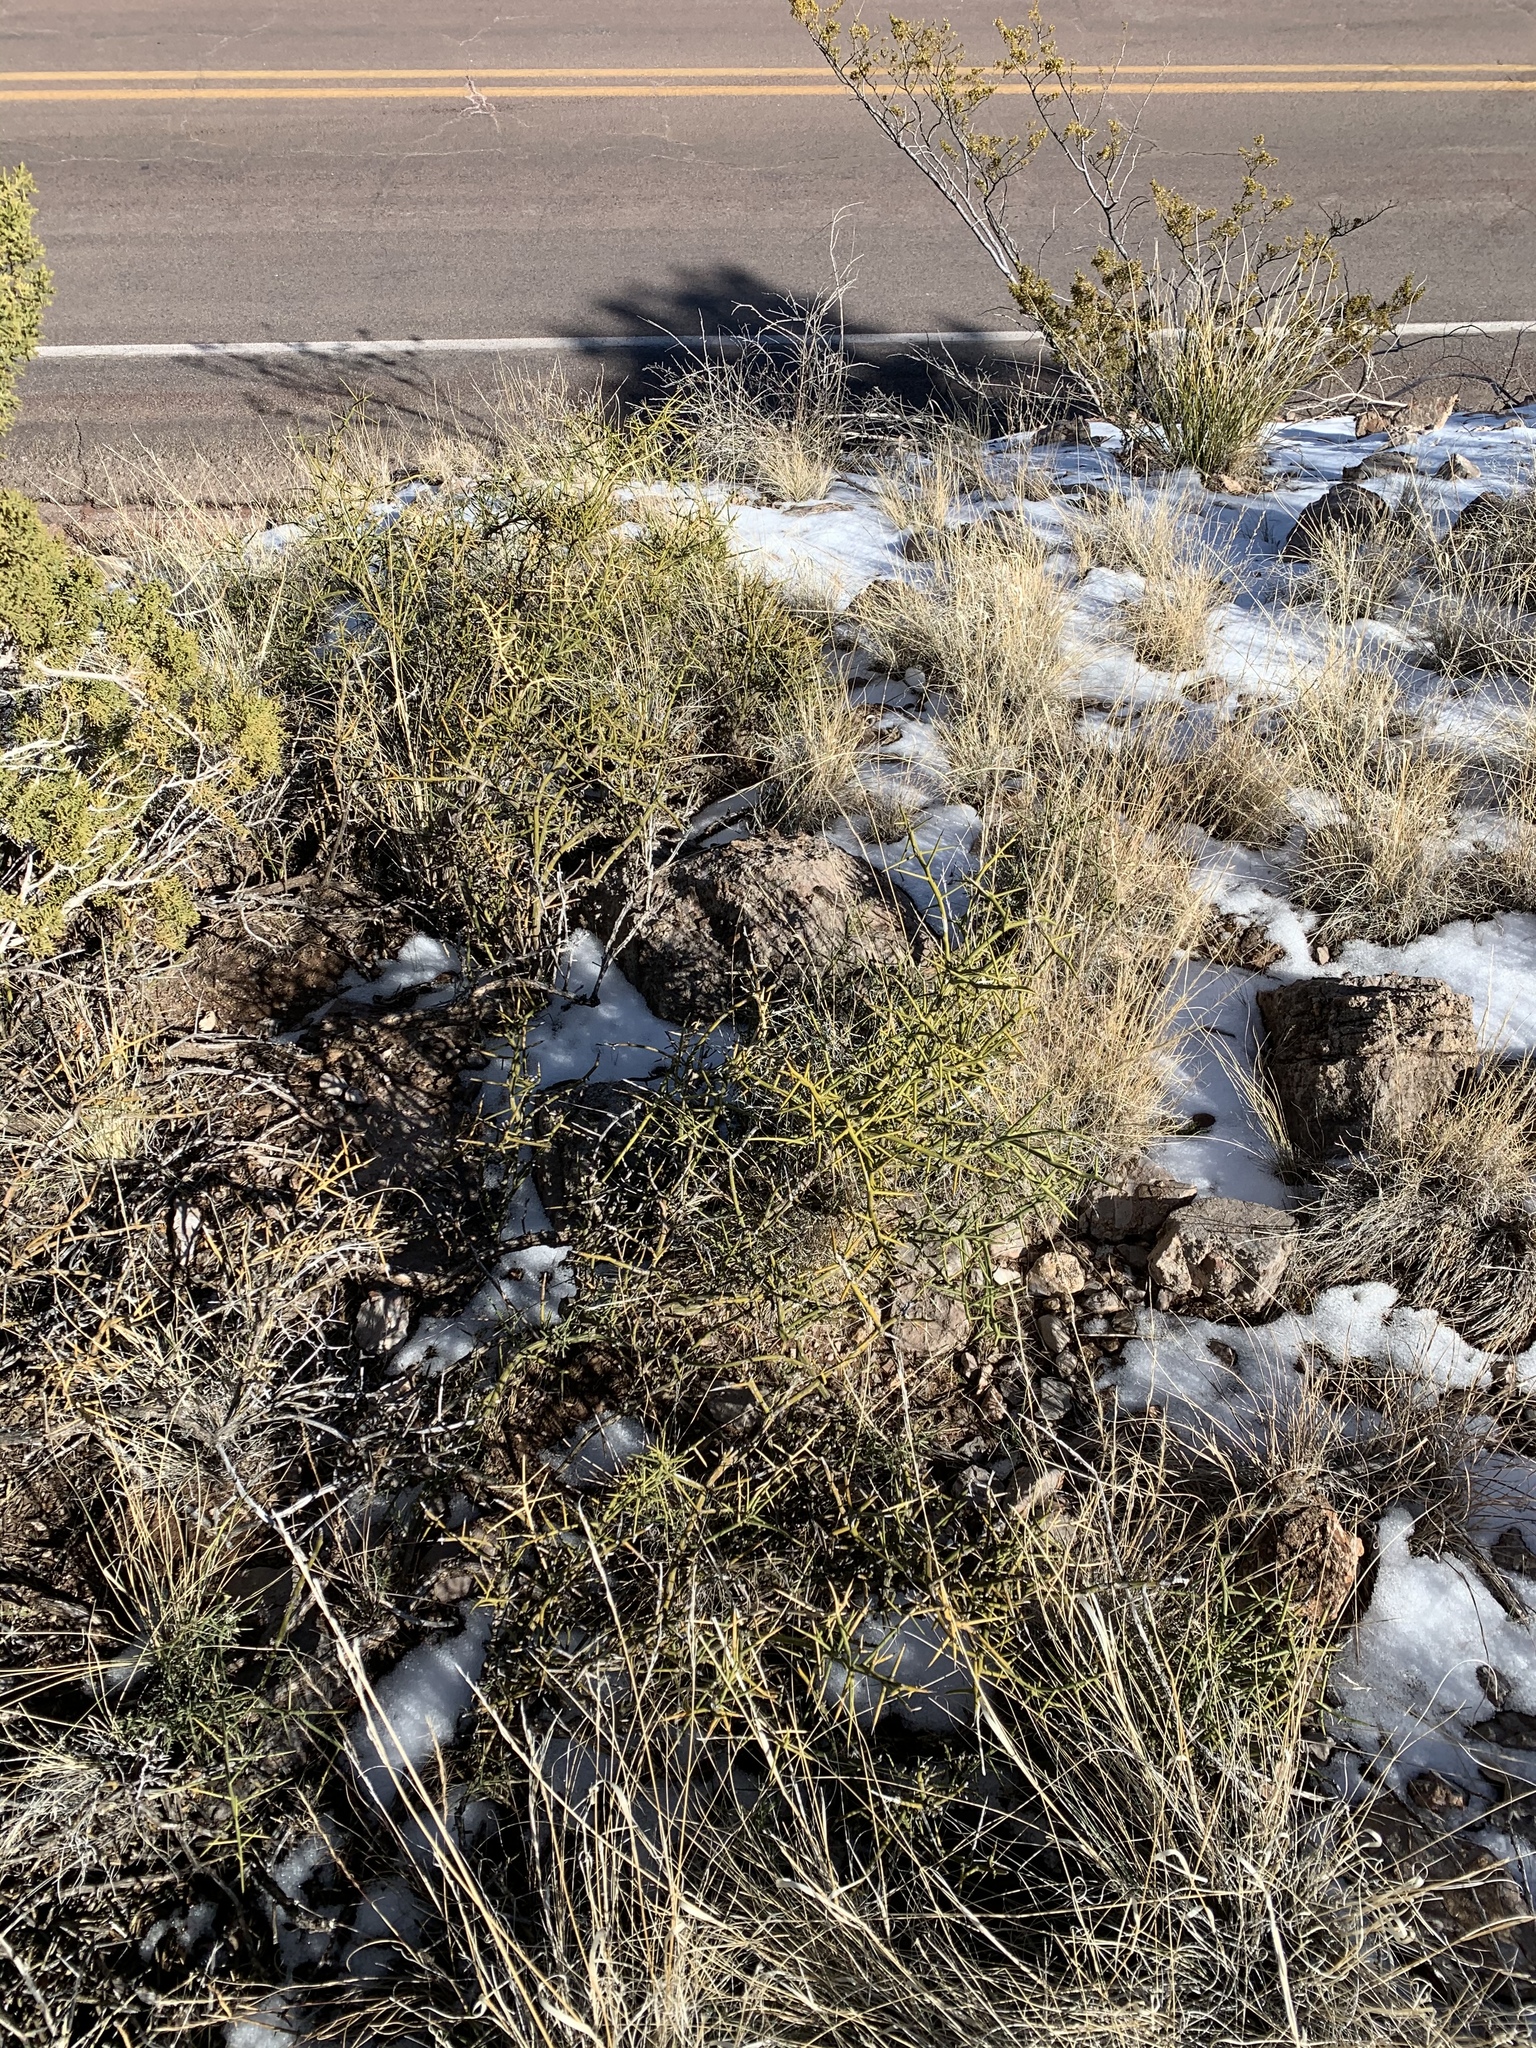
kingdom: Plantae
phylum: Tracheophyta
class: Magnoliopsida
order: Brassicales
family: Koeberliniaceae
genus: Koeberlinia
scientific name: Koeberlinia spinosa
